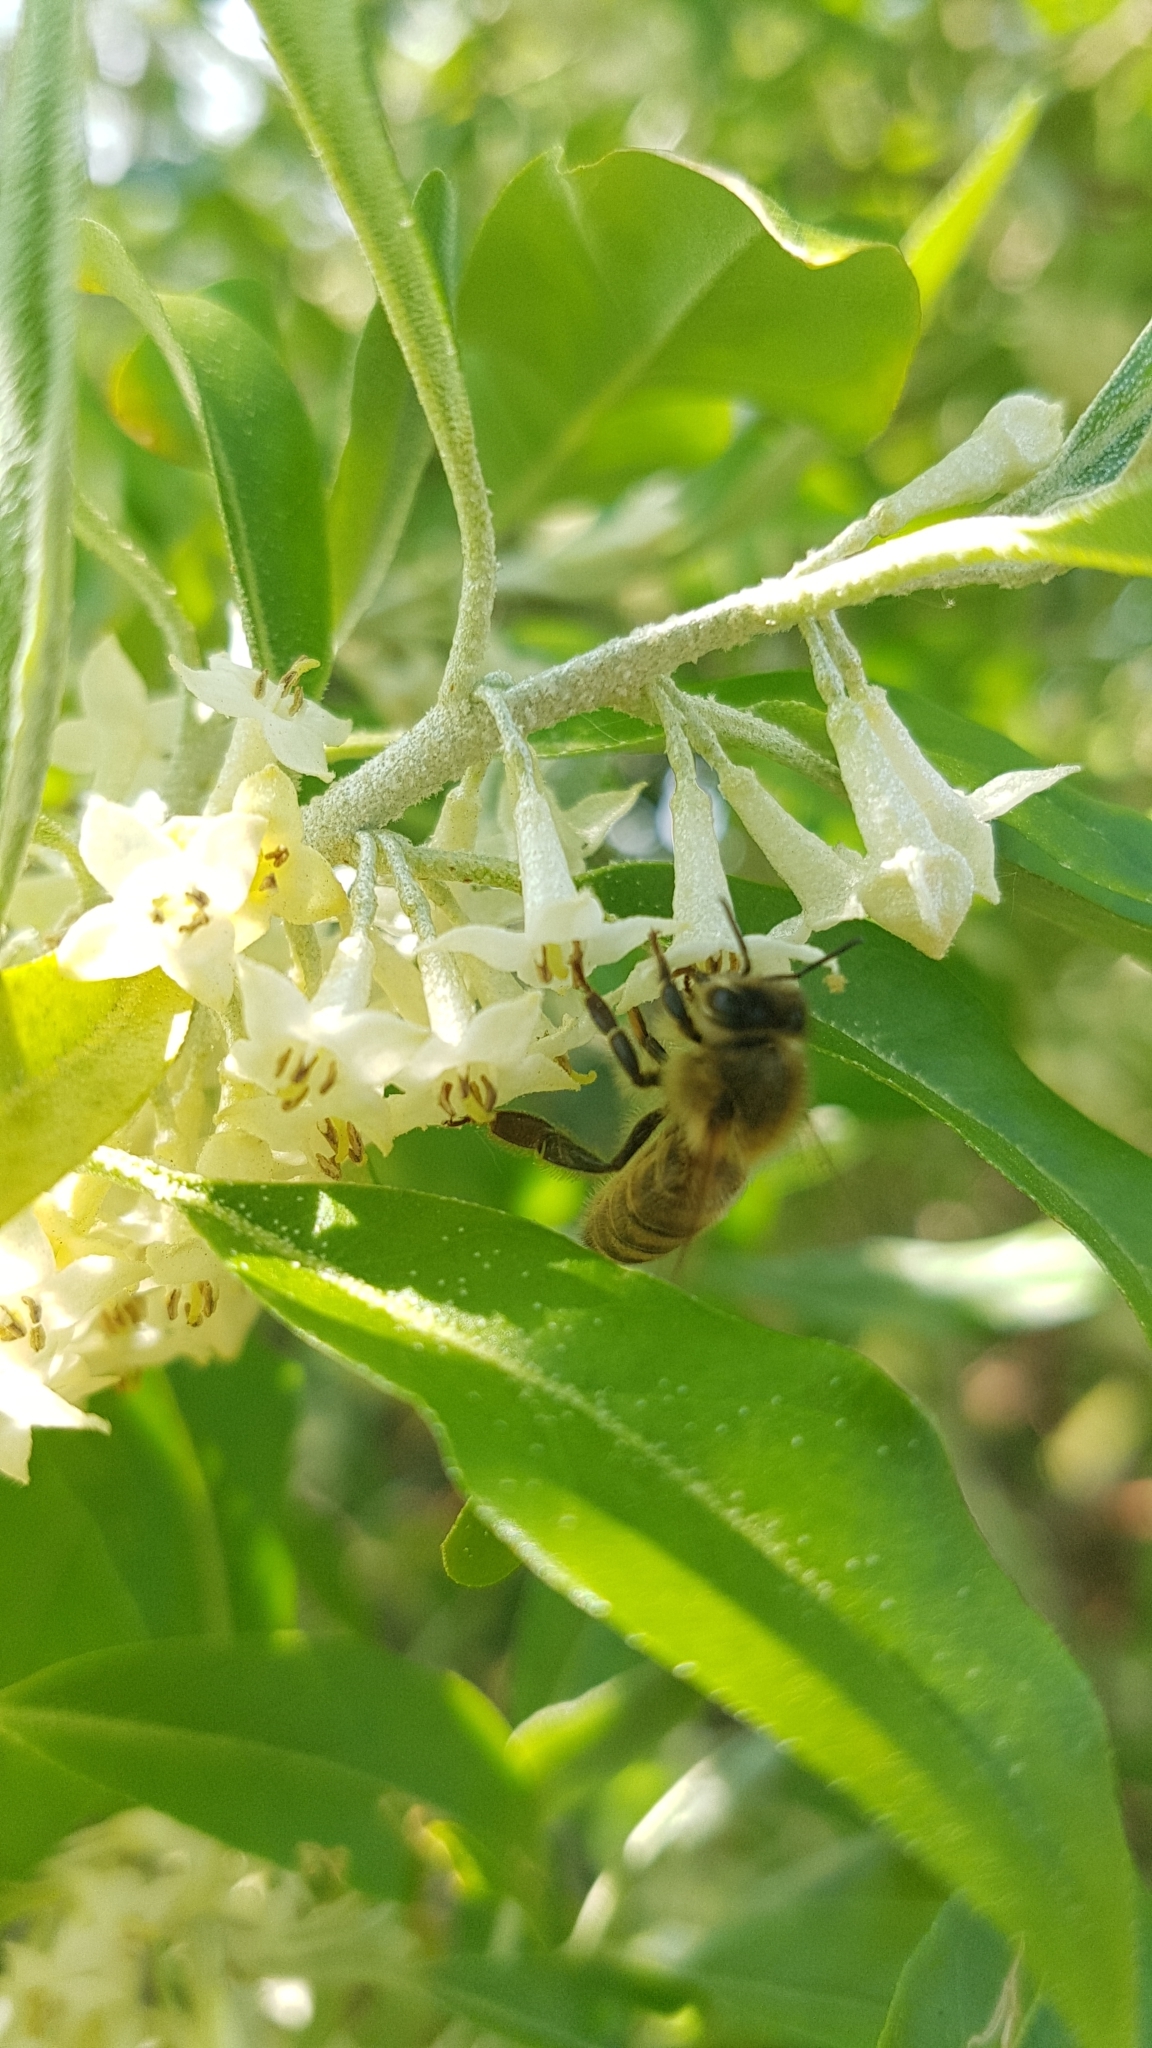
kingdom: Animalia
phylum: Arthropoda
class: Insecta
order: Hymenoptera
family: Apidae
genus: Apis
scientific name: Apis mellifera
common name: Honey bee
